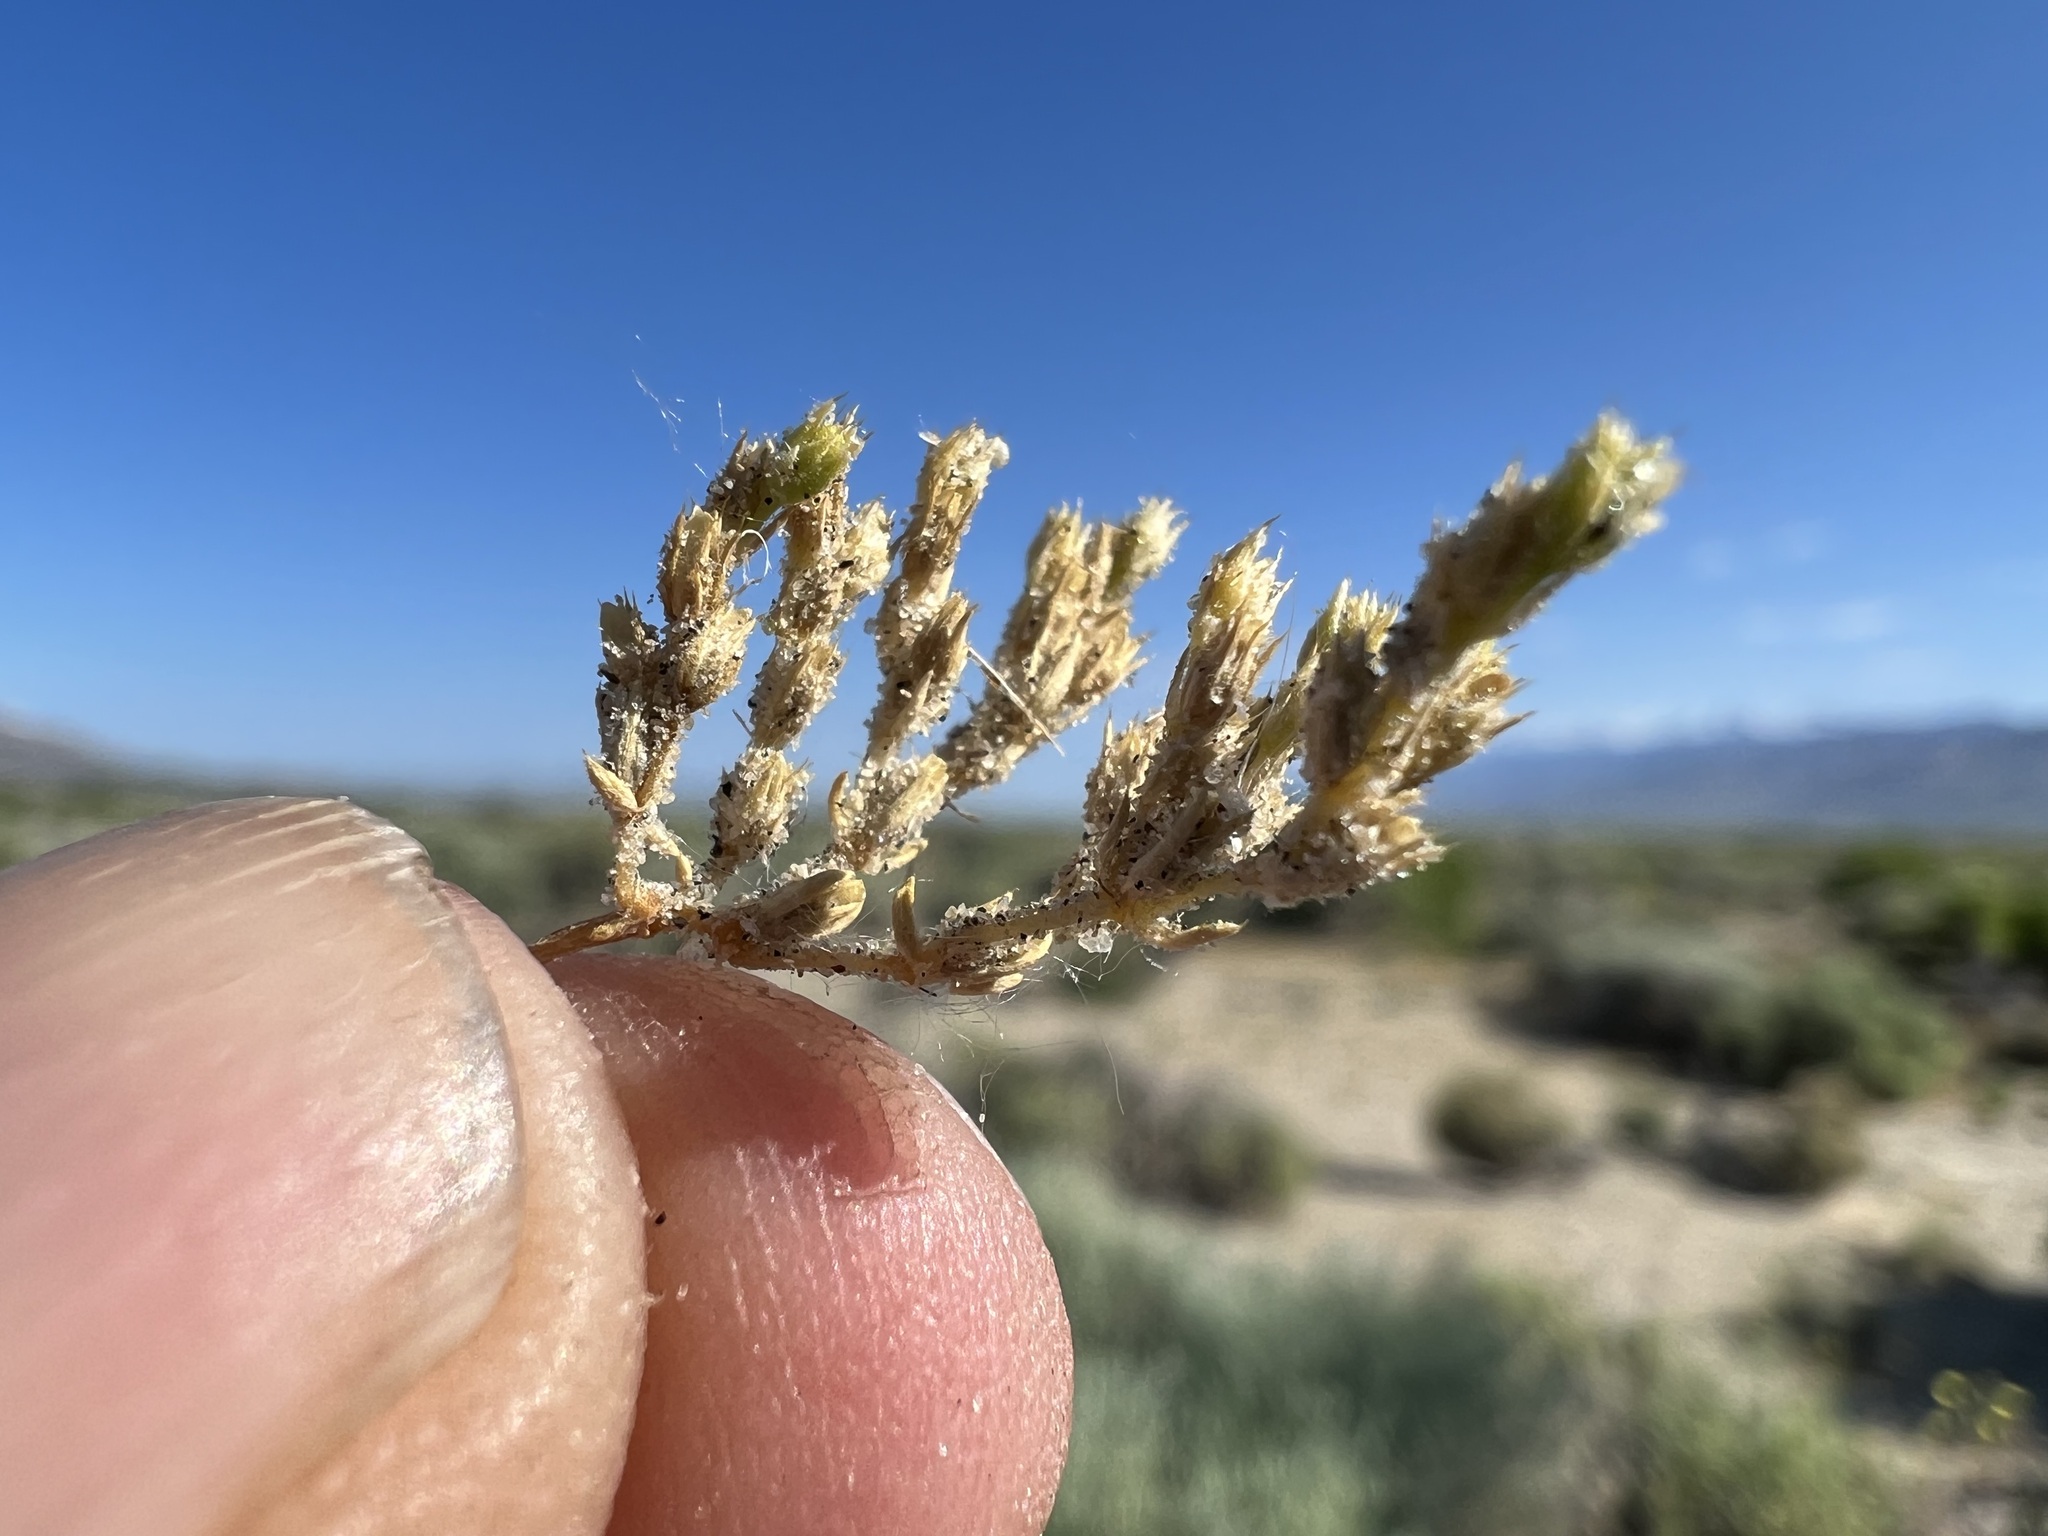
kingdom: Plantae
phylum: Tracheophyta
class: Magnoliopsida
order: Caryophyllales
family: Caryophyllaceae
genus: Loeflingia
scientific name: Loeflingia squarrosa
